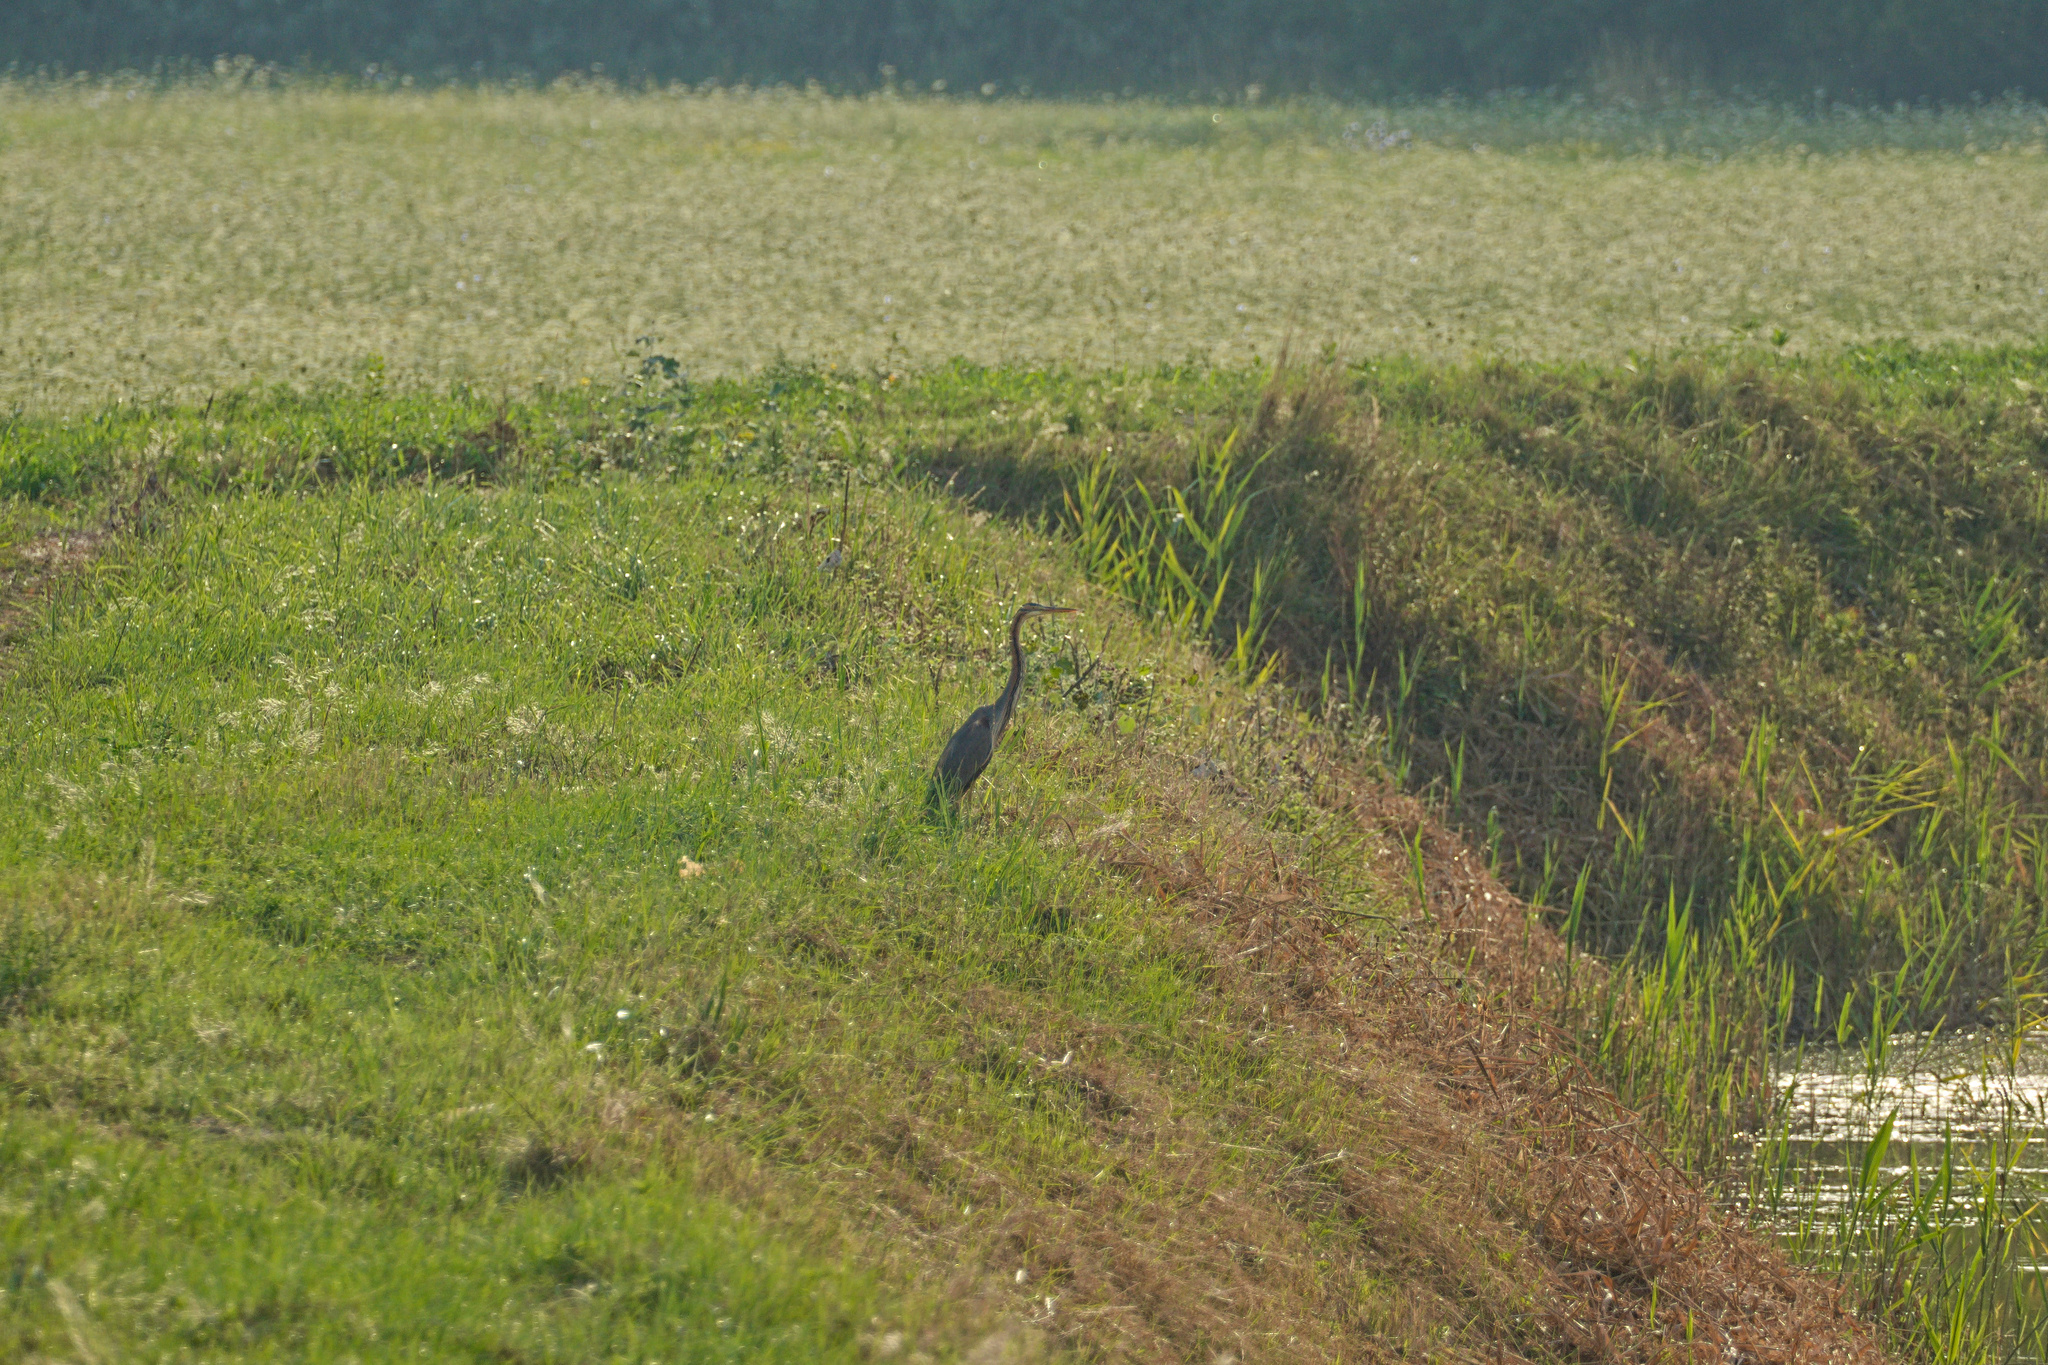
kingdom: Animalia
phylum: Chordata
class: Aves
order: Pelecaniformes
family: Ardeidae
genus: Ardea
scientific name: Ardea purpurea
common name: Purple heron
